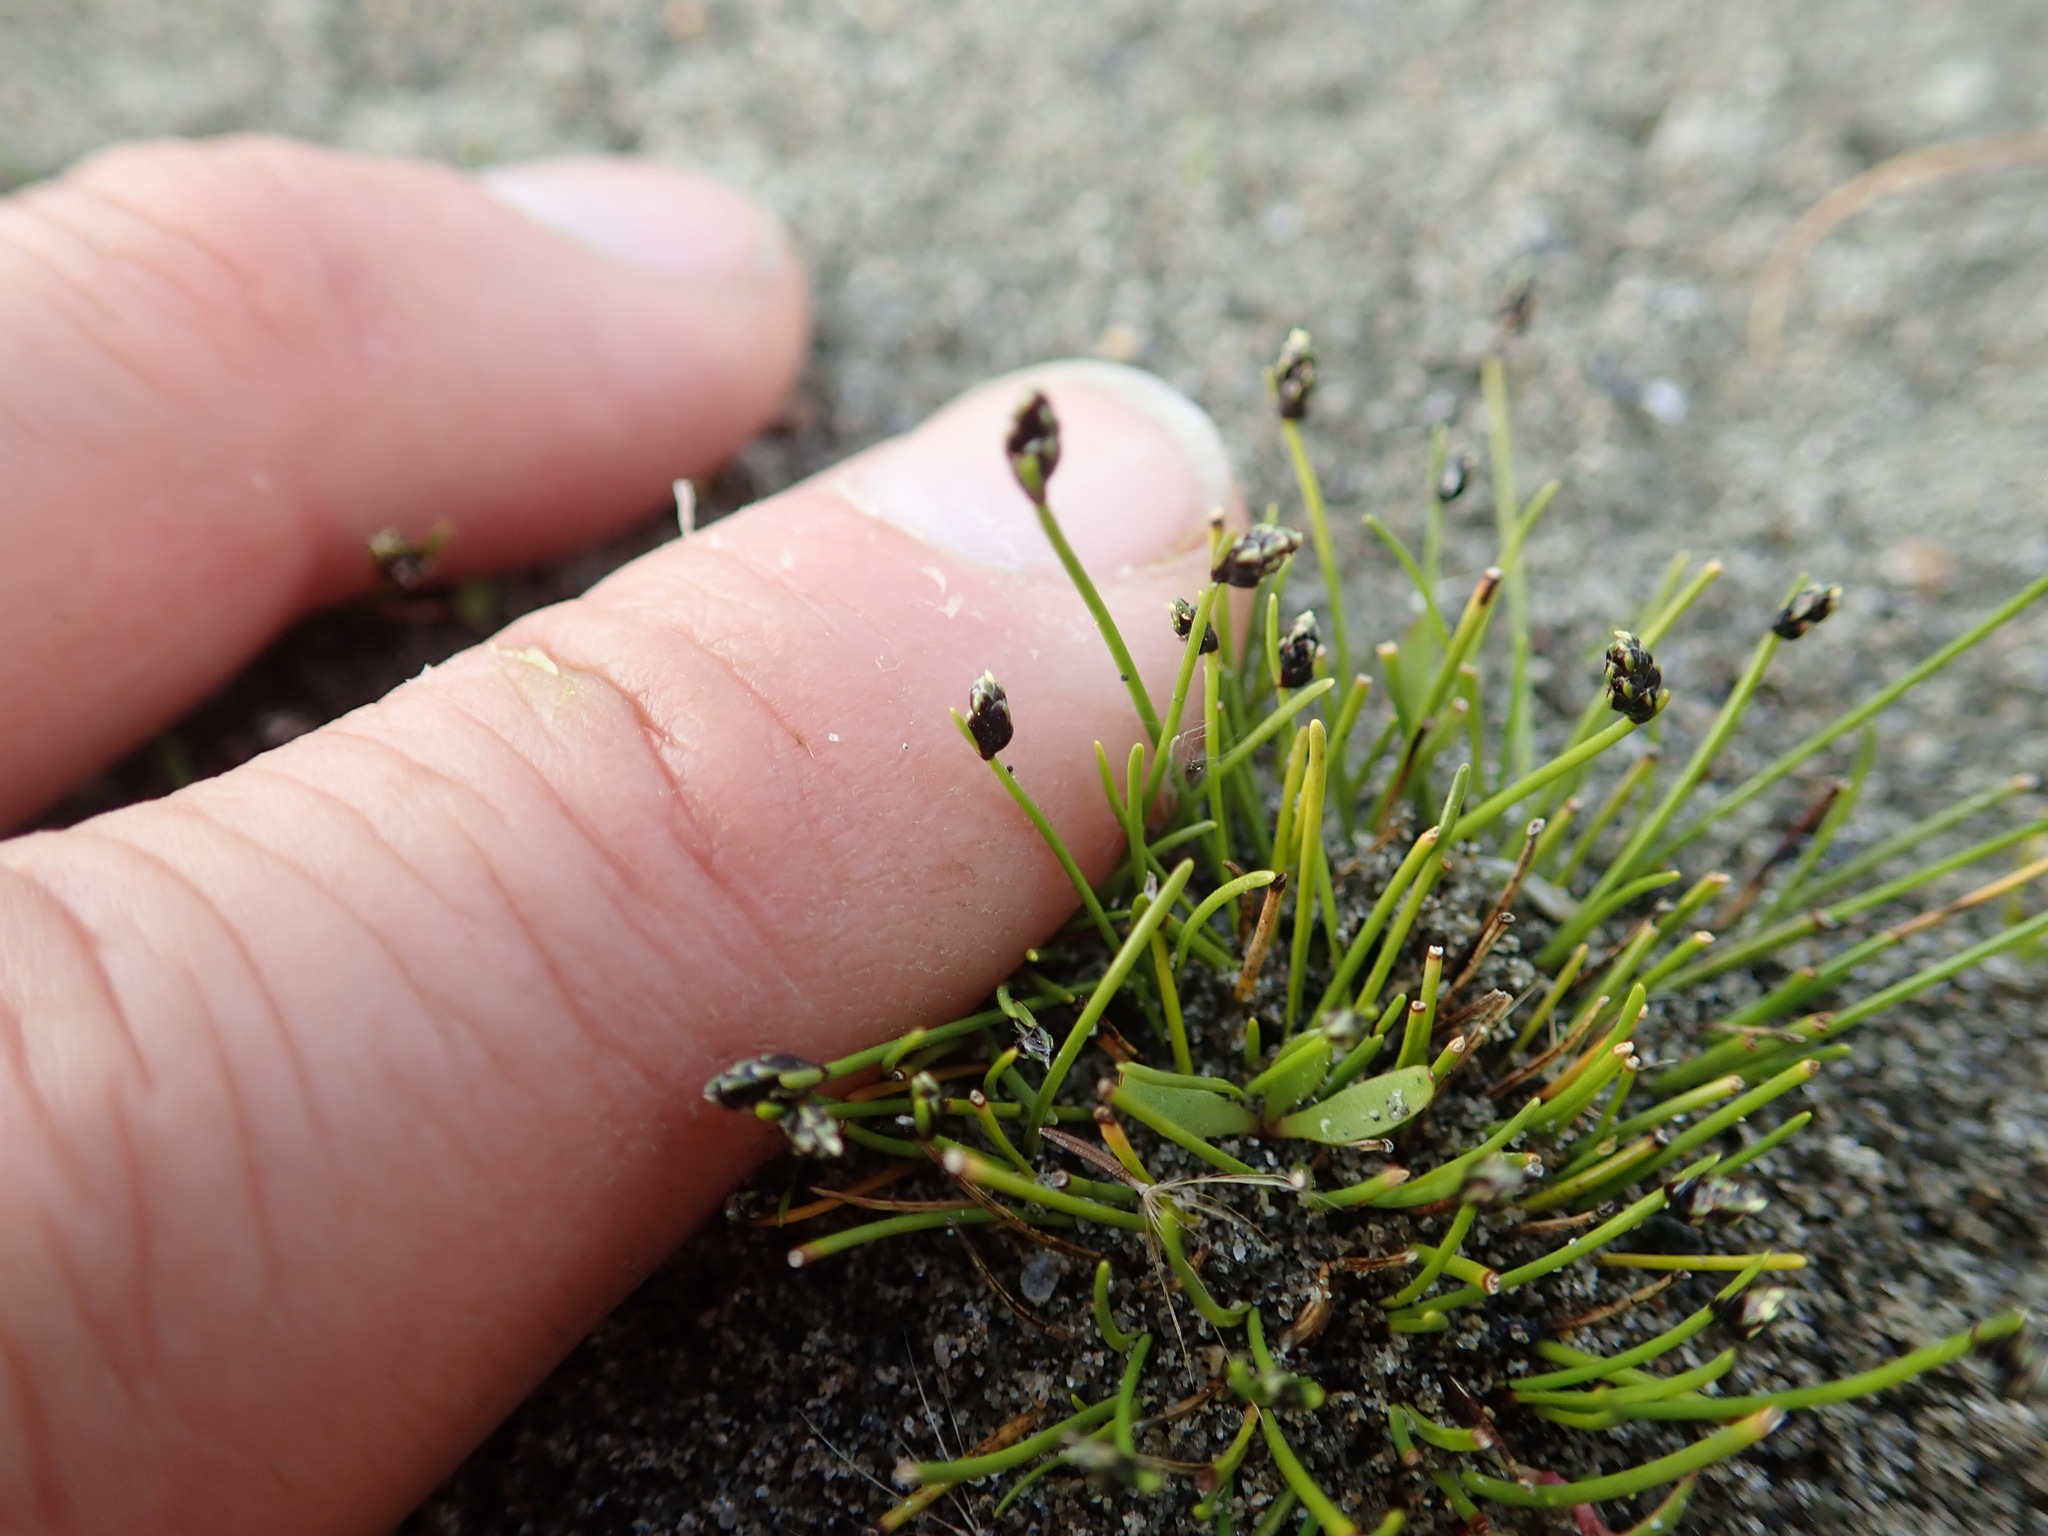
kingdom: Plantae
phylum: Tracheophyta
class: Liliopsida
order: Poales
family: Cyperaceae
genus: Isolepis
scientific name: Isolepis cernua
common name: Slender club-rush
